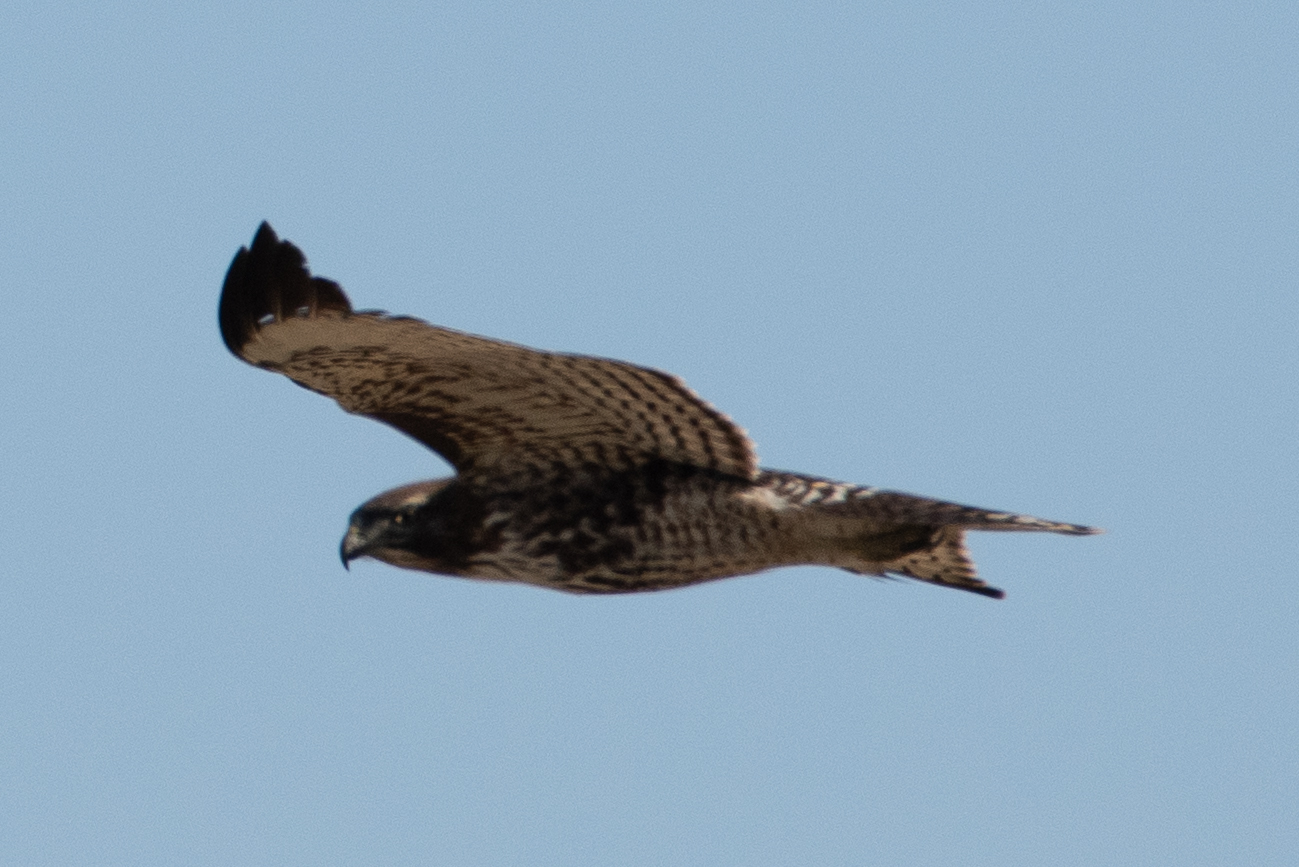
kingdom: Animalia
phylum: Chordata
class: Aves
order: Accipitriformes
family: Accipitridae
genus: Buteo
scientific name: Buteo jamaicensis
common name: Red-tailed hawk
